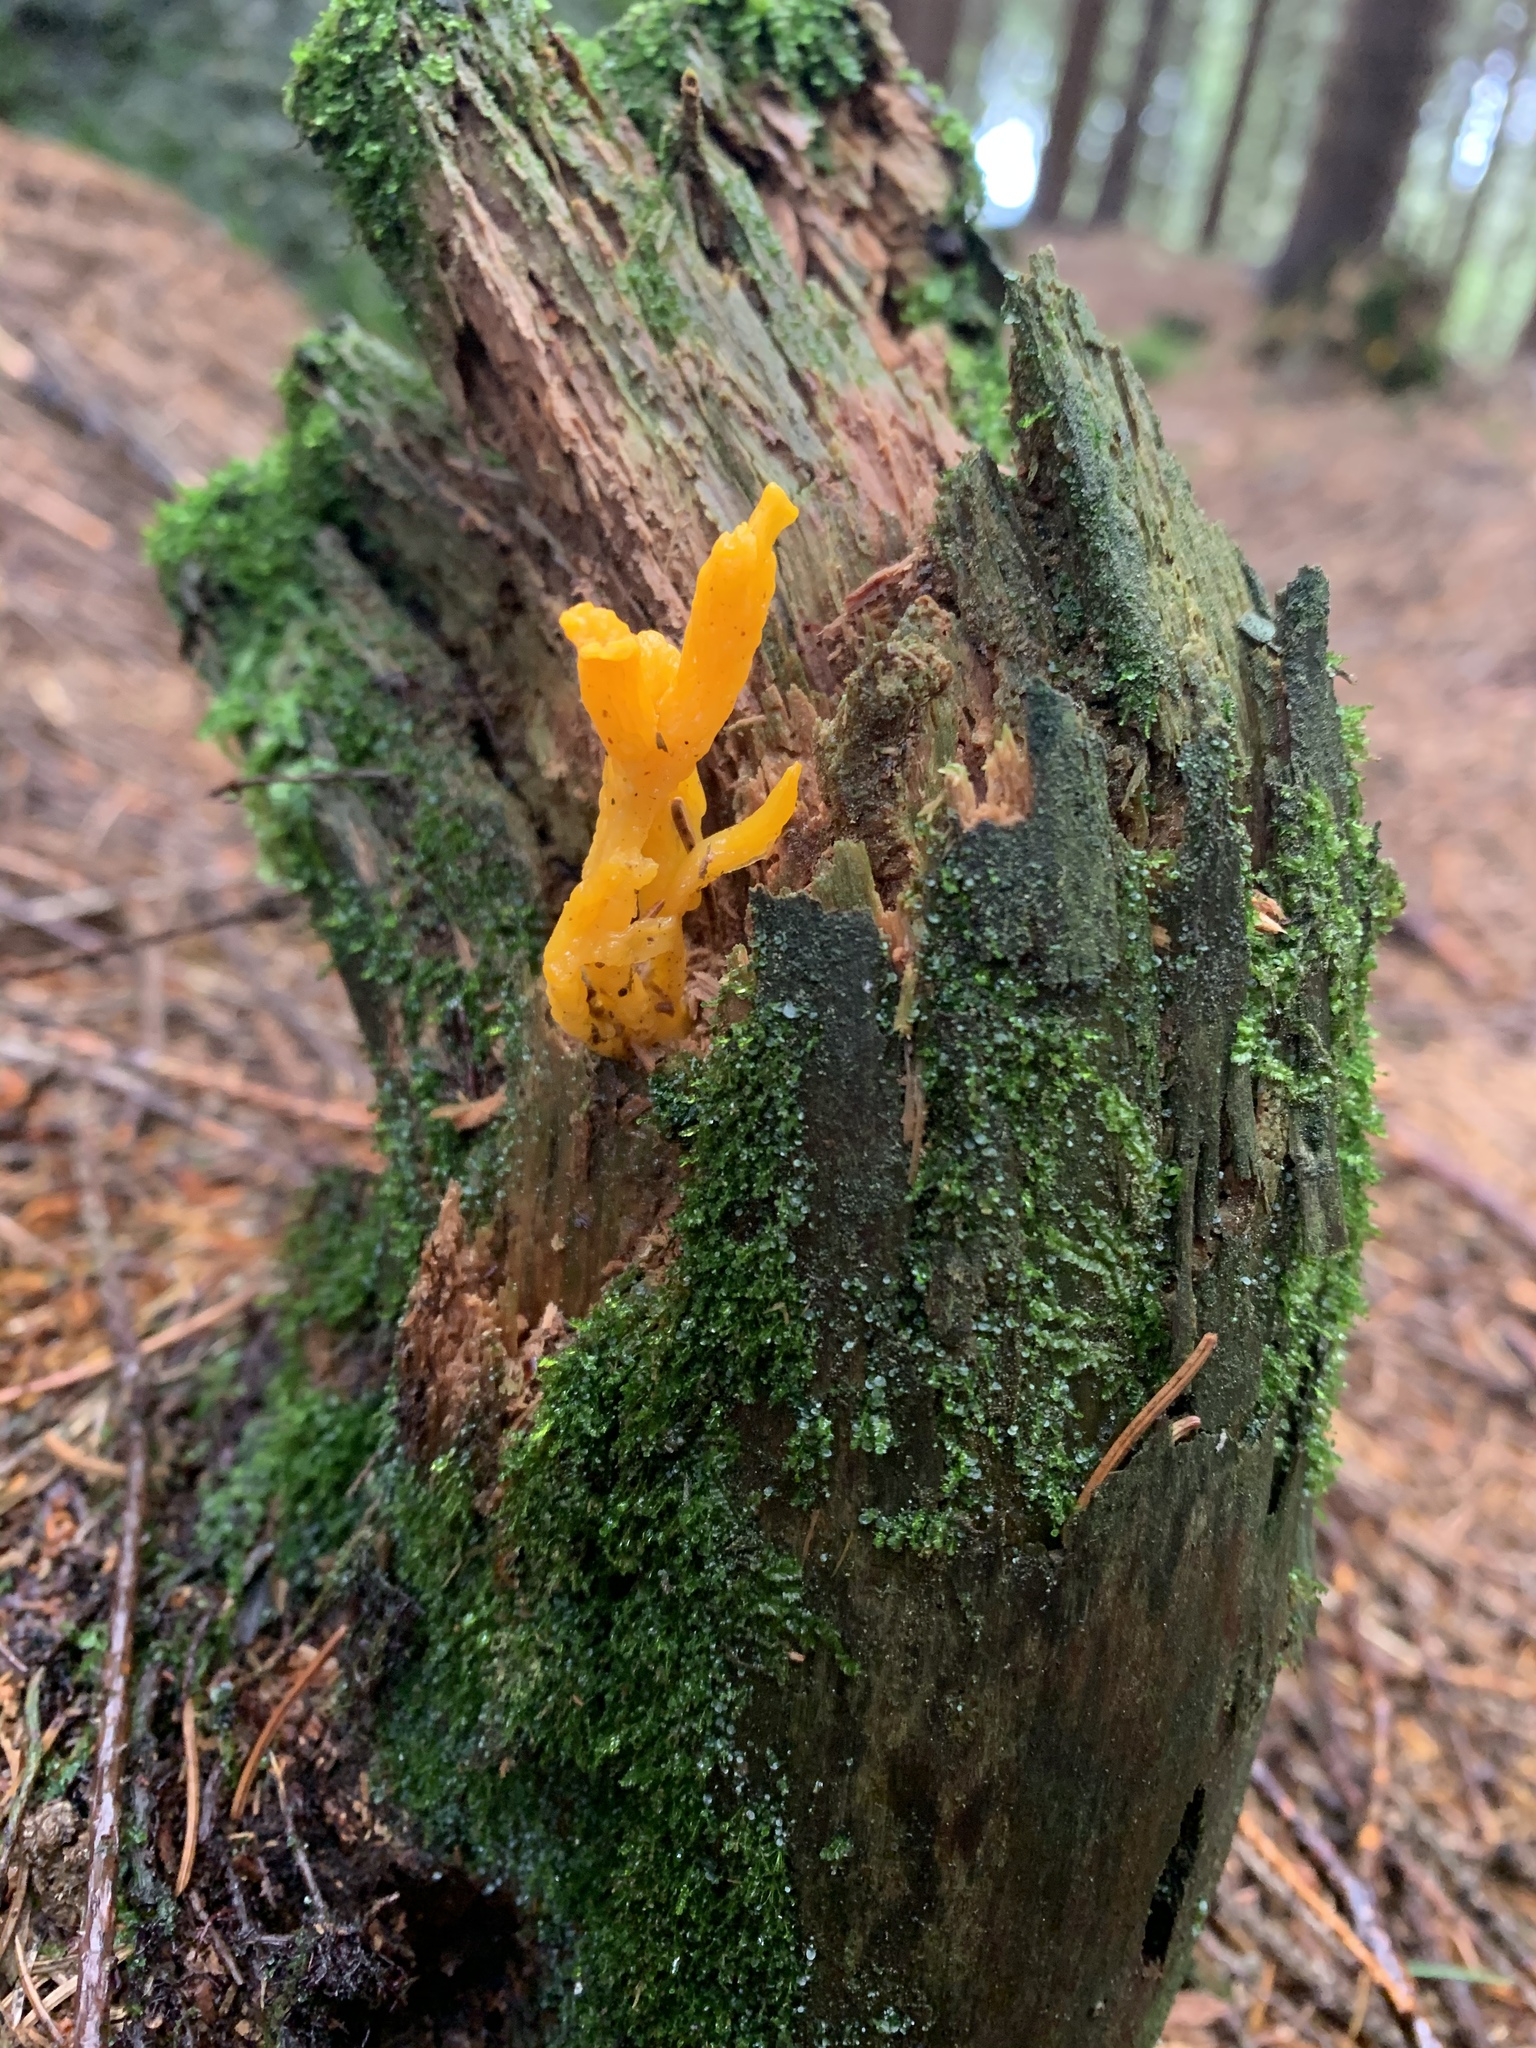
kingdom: Fungi
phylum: Basidiomycota
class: Dacrymycetes
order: Dacrymycetales
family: Dacrymycetaceae
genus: Calocera
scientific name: Calocera viscosa
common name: Yellow stagshorn
